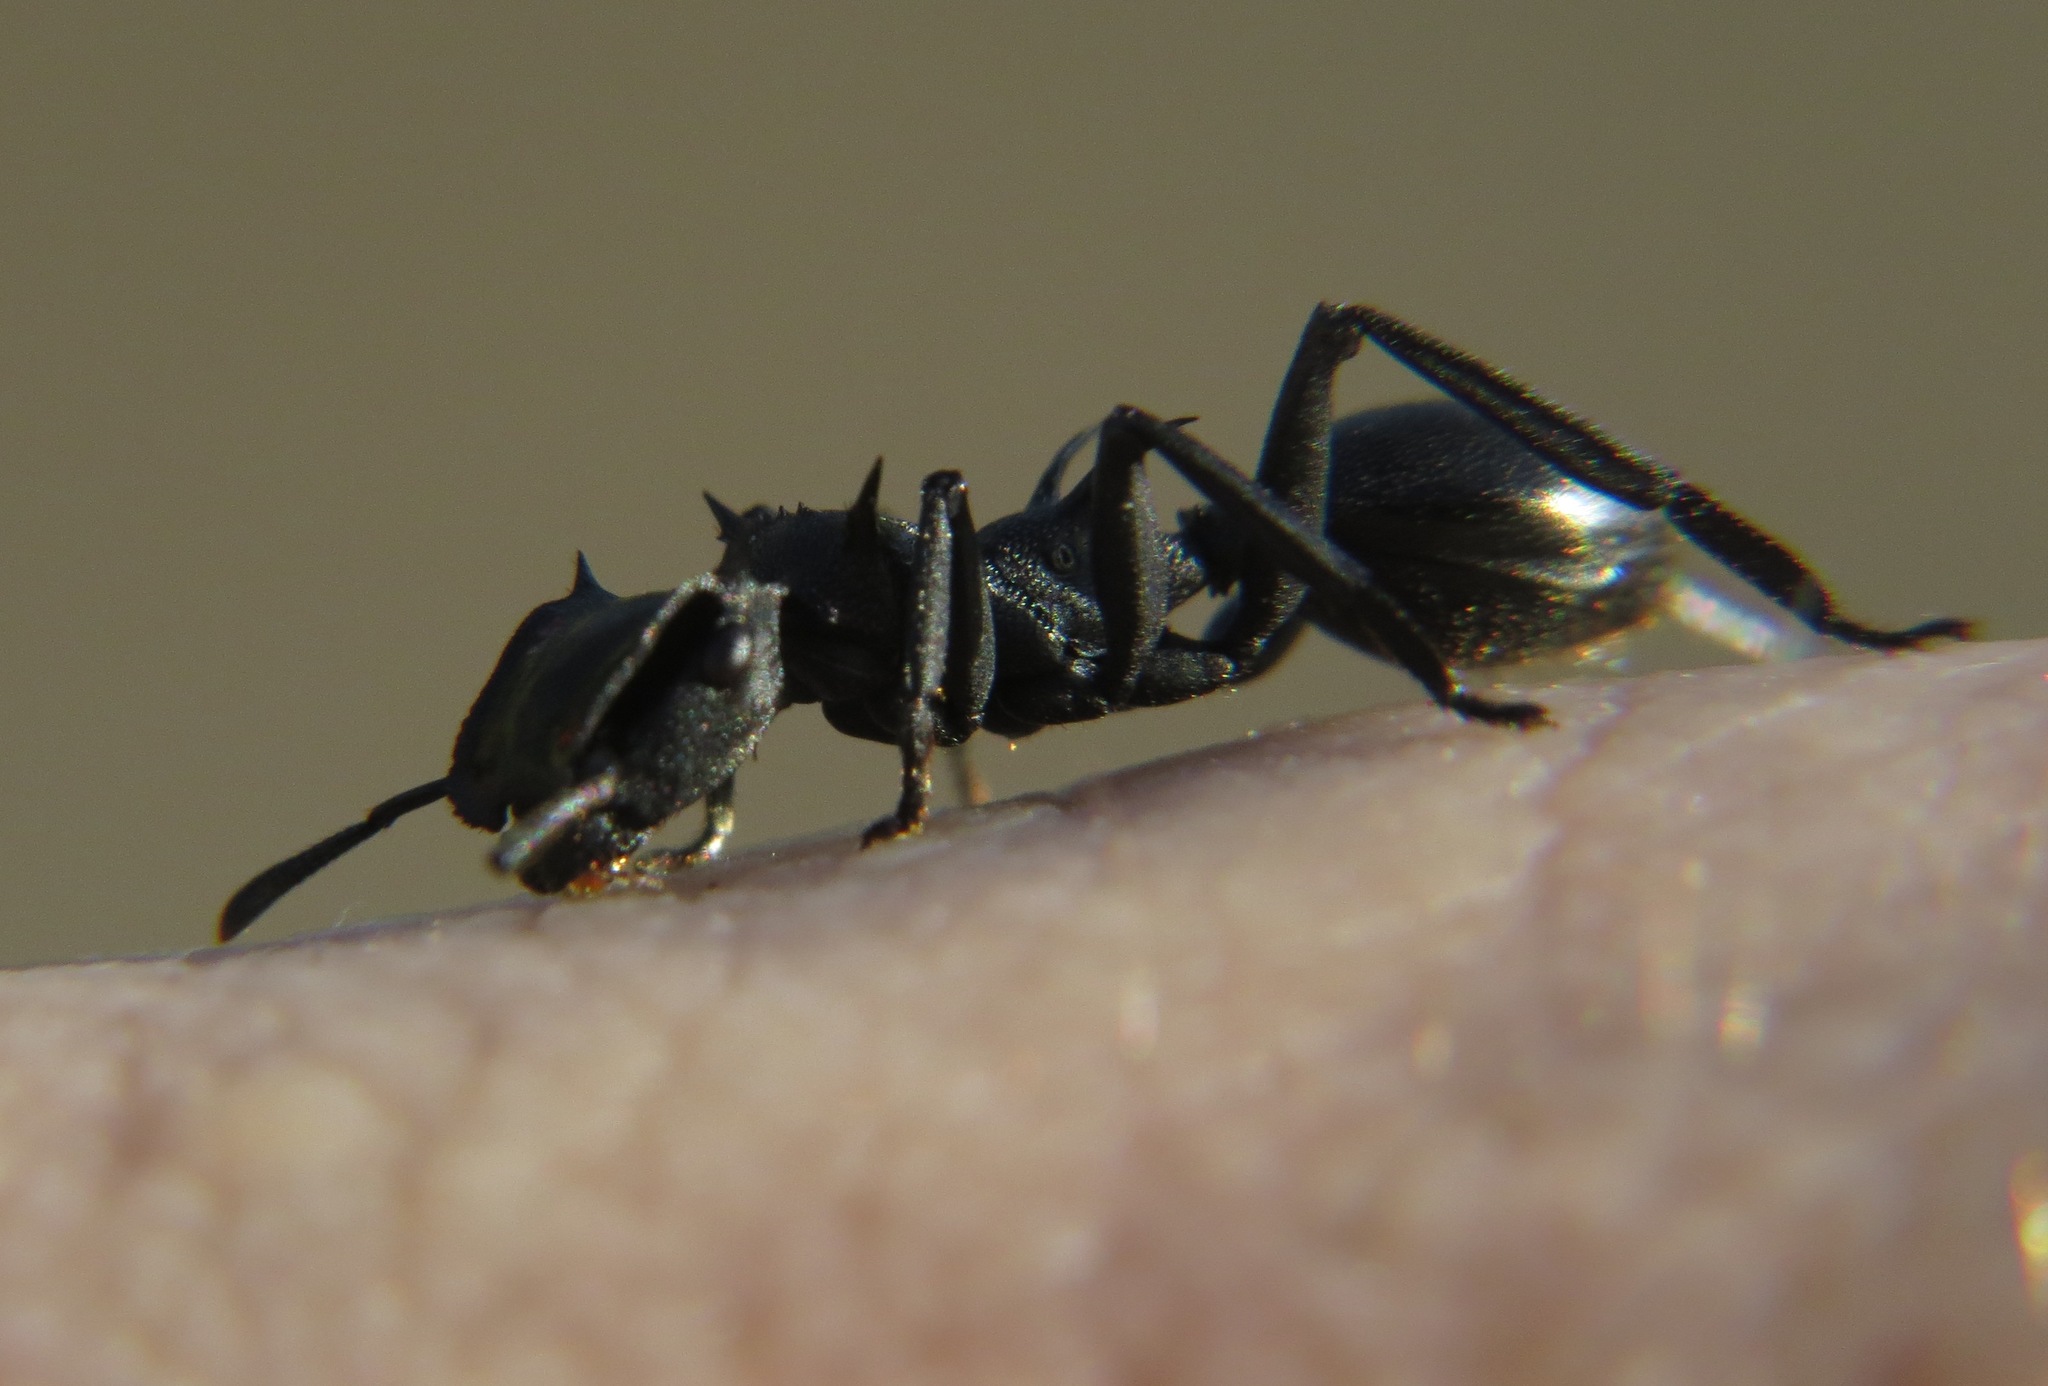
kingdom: Animalia
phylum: Arthropoda
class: Insecta
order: Hymenoptera
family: Formicidae
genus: Cephalotes
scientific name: Cephalotes atratus
